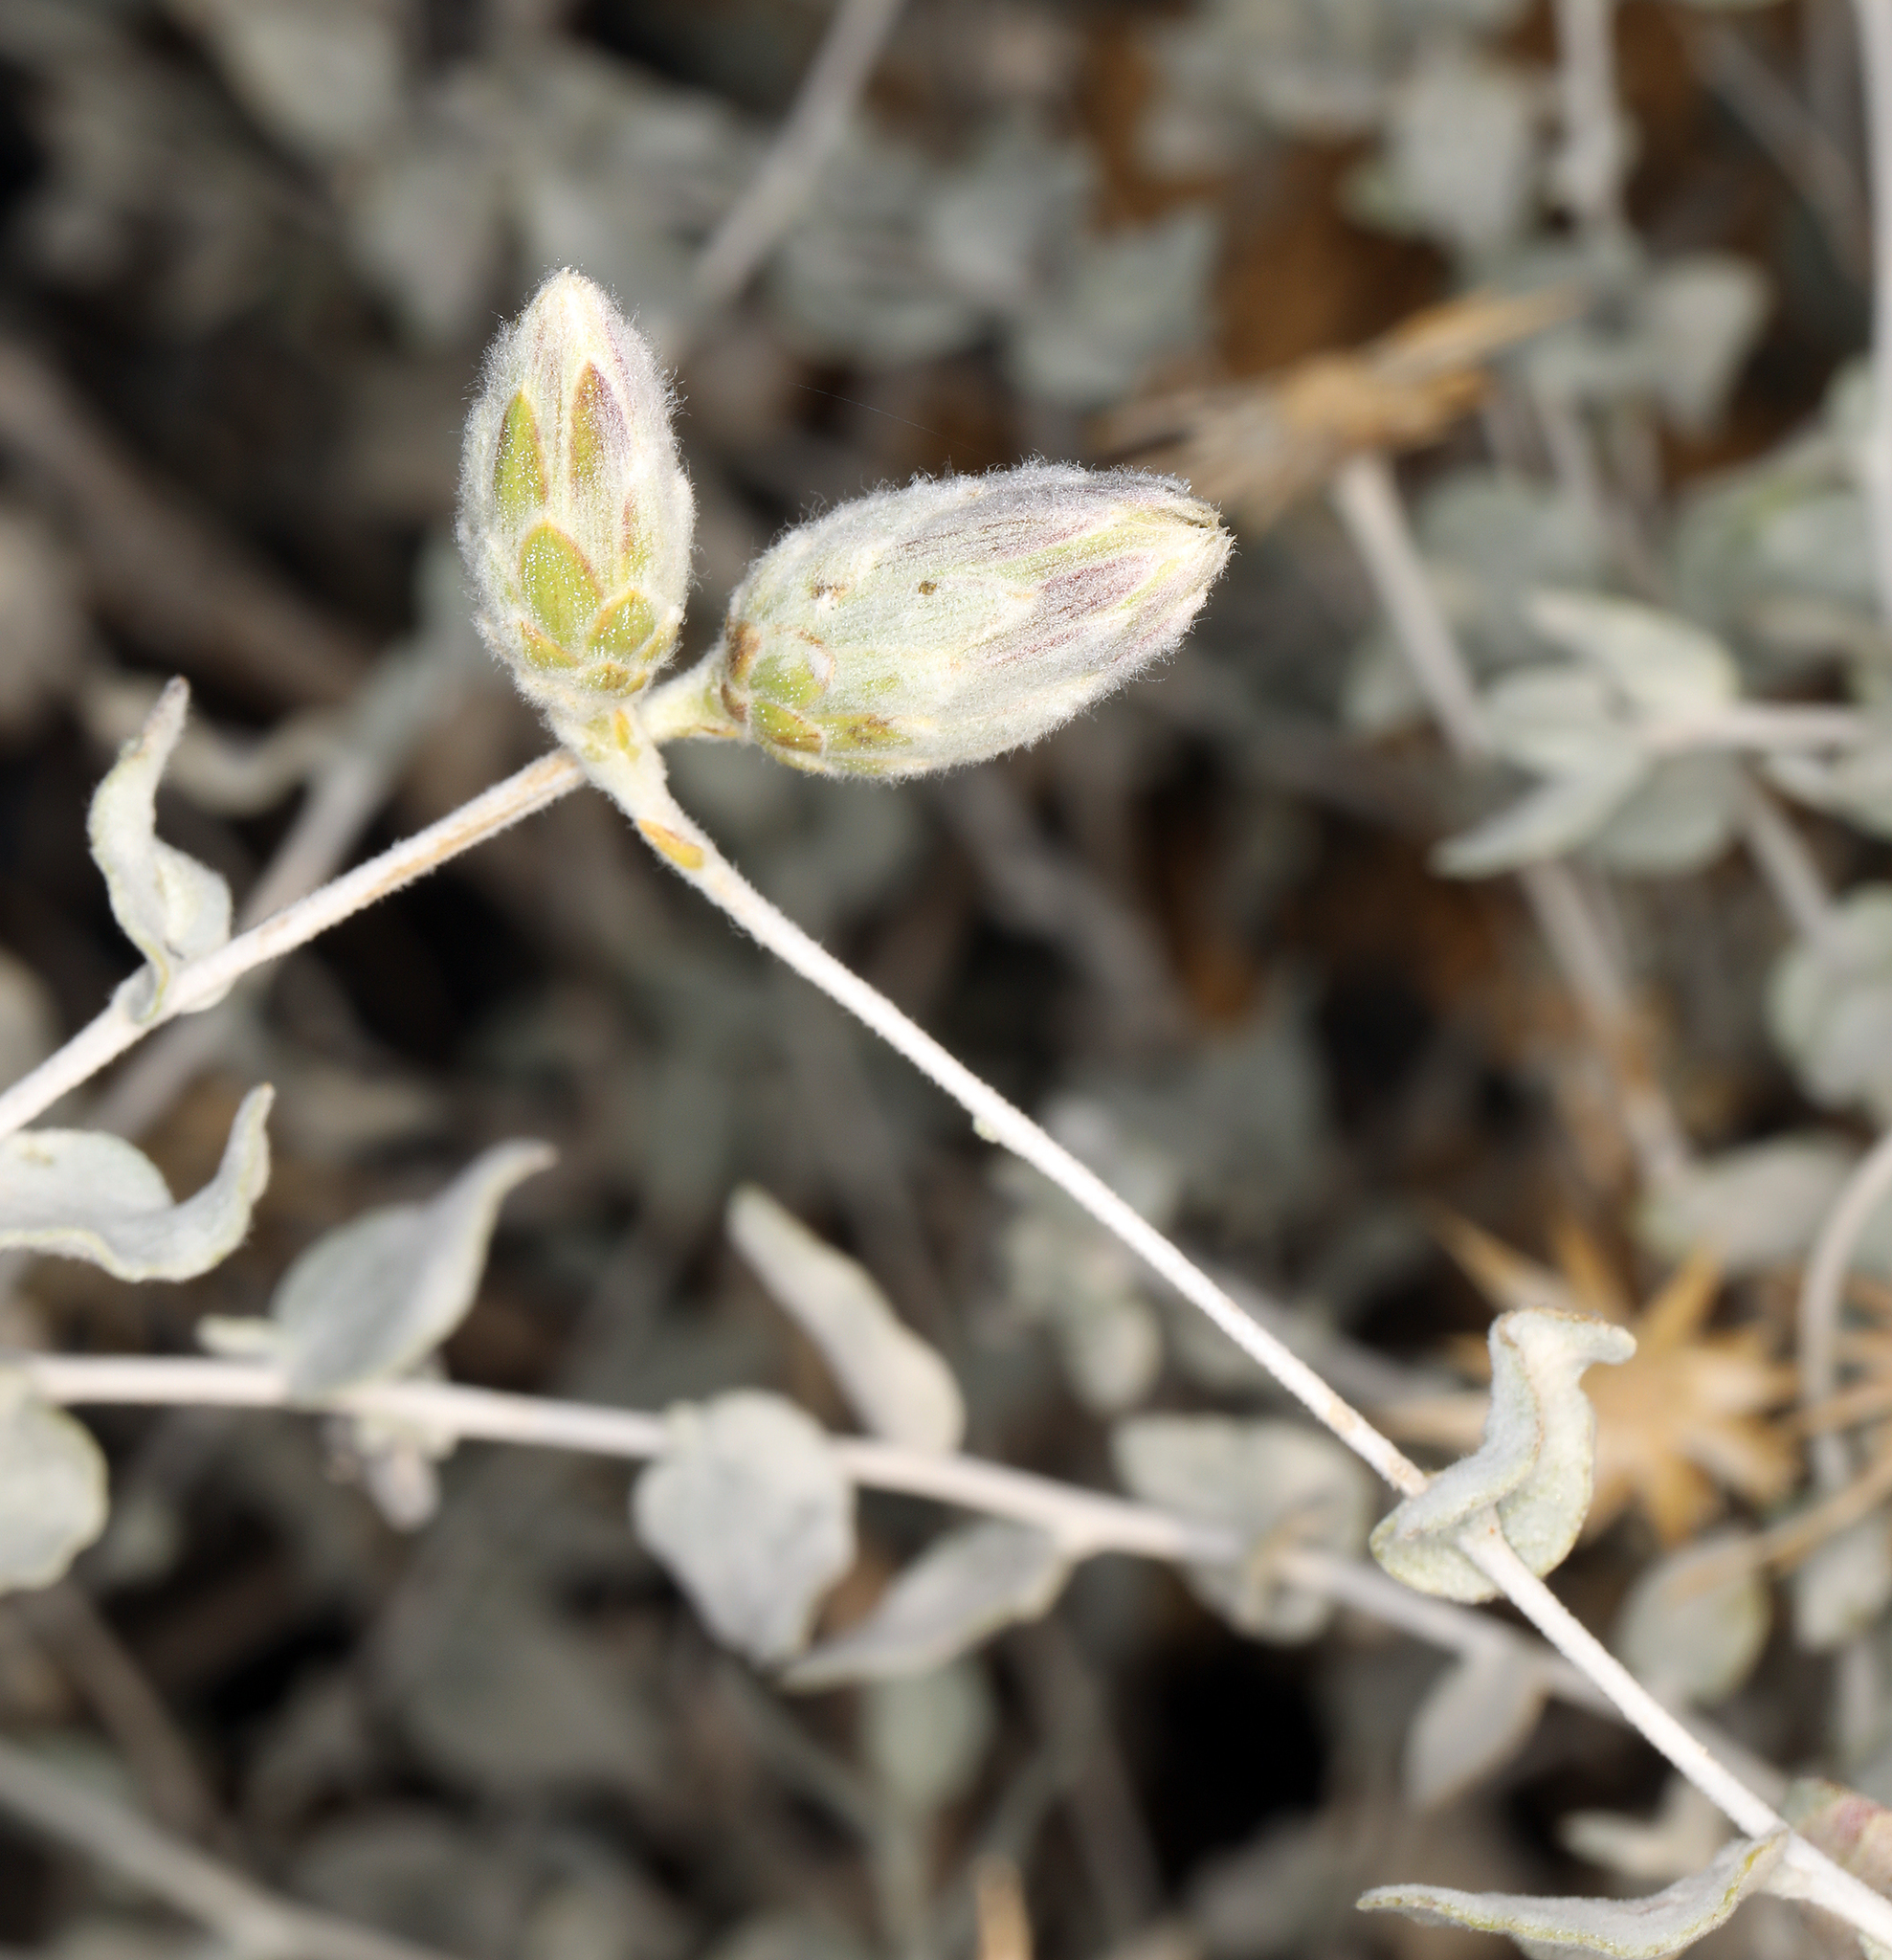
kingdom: Plantae
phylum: Tracheophyta
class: Magnoliopsida
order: Asterales
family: Asteraceae
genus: Brickellia
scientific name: Brickellia incana
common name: Woolly brickelbush
